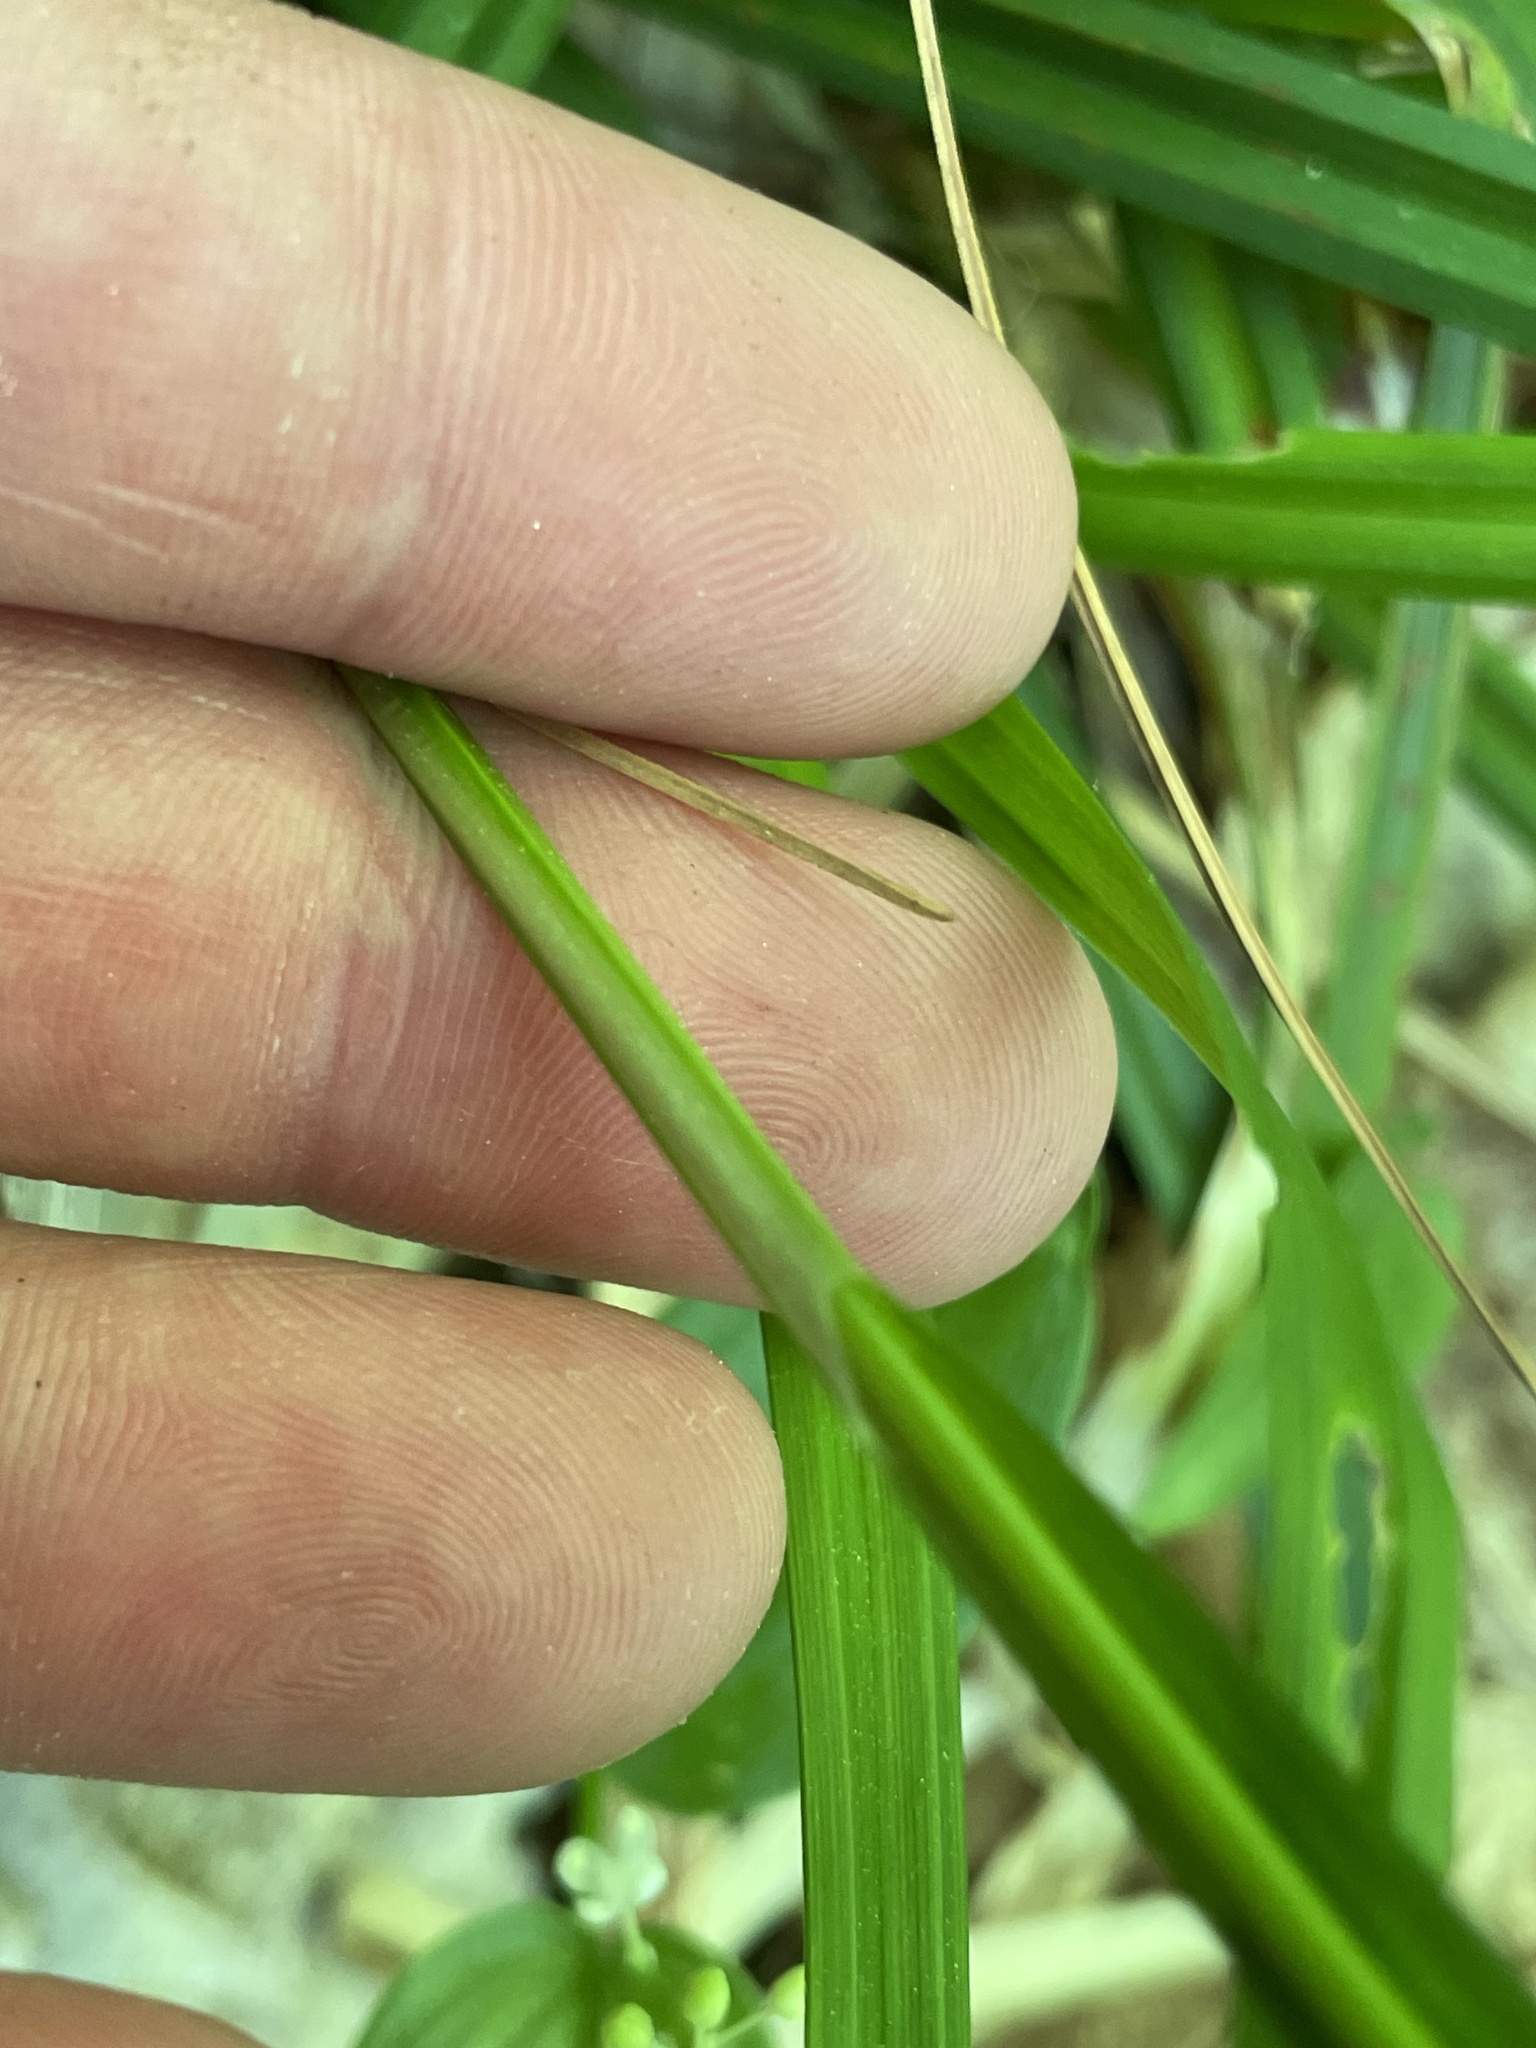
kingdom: Plantae
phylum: Tracheophyta
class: Liliopsida
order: Poales
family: Cyperaceae
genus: Carex
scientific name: Carex arctata
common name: Black sedge
